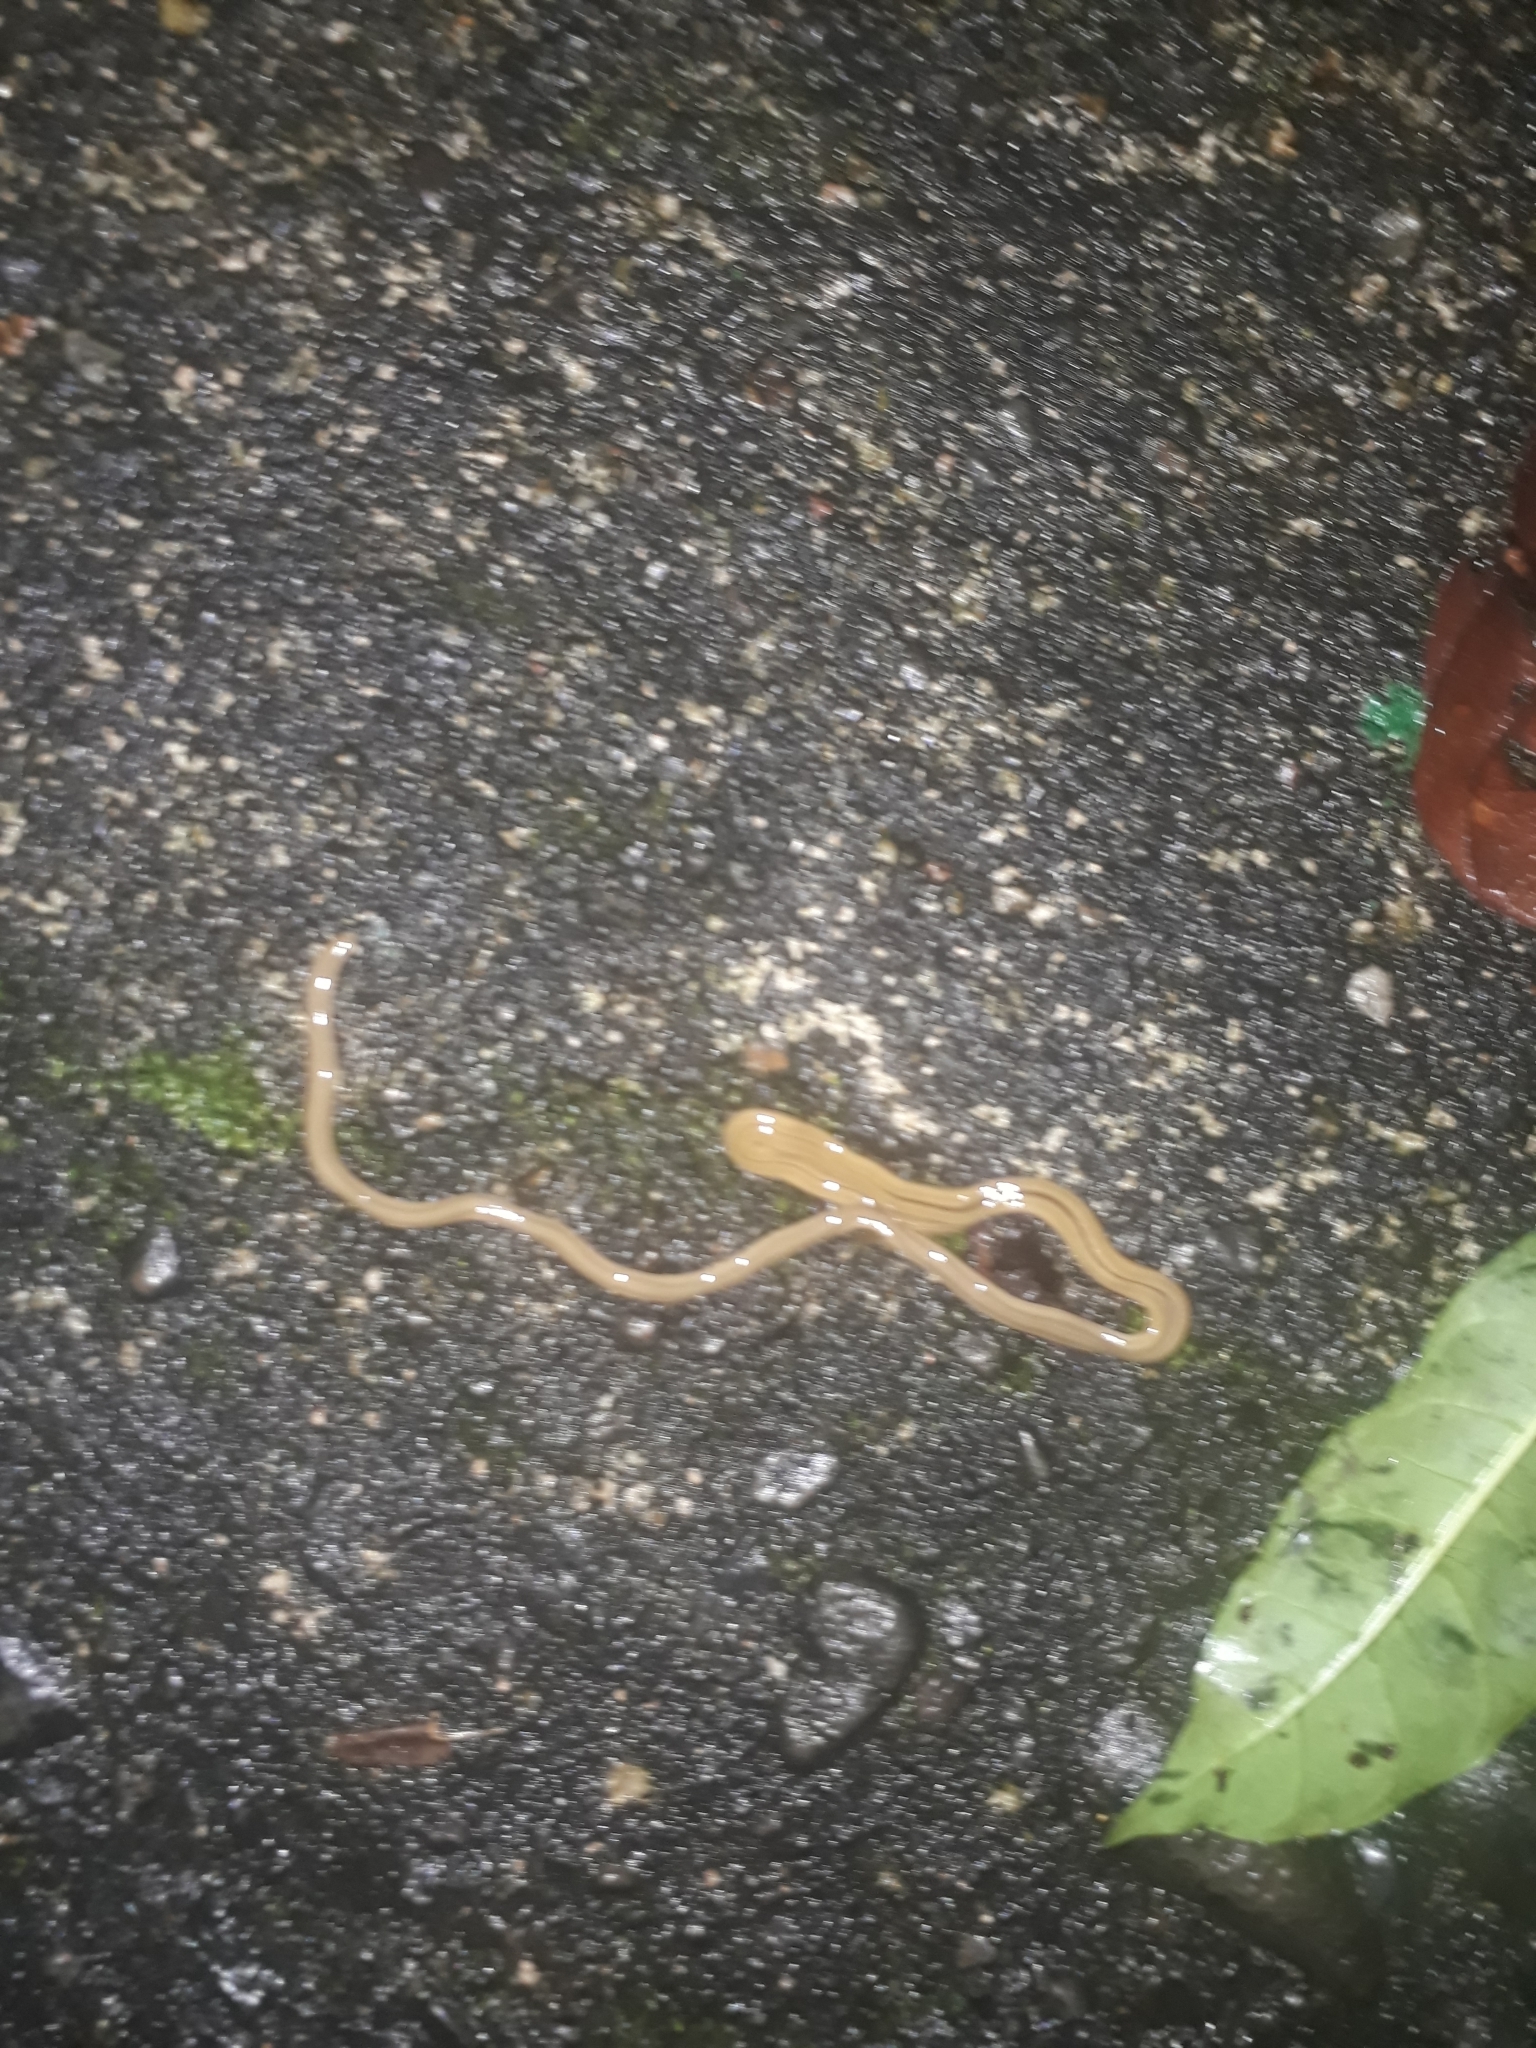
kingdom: Animalia
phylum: Platyhelminthes
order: Tricladida
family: Geoplanidae
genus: Bipalium
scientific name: Bipalium kewense
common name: Hammerhead flatworm
